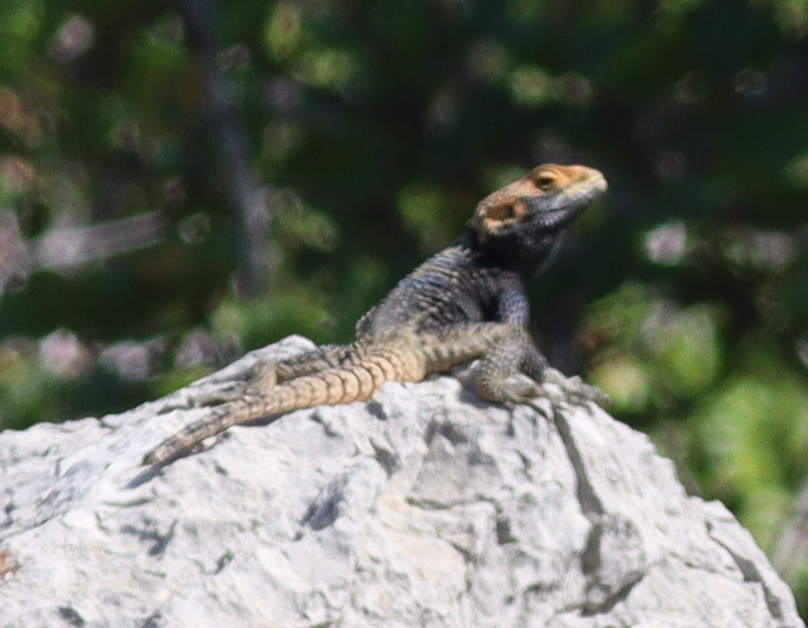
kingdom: Animalia
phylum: Chordata
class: Squamata
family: Agamidae
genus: Stellagama
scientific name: Stellagama stellio
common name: Starred agama
